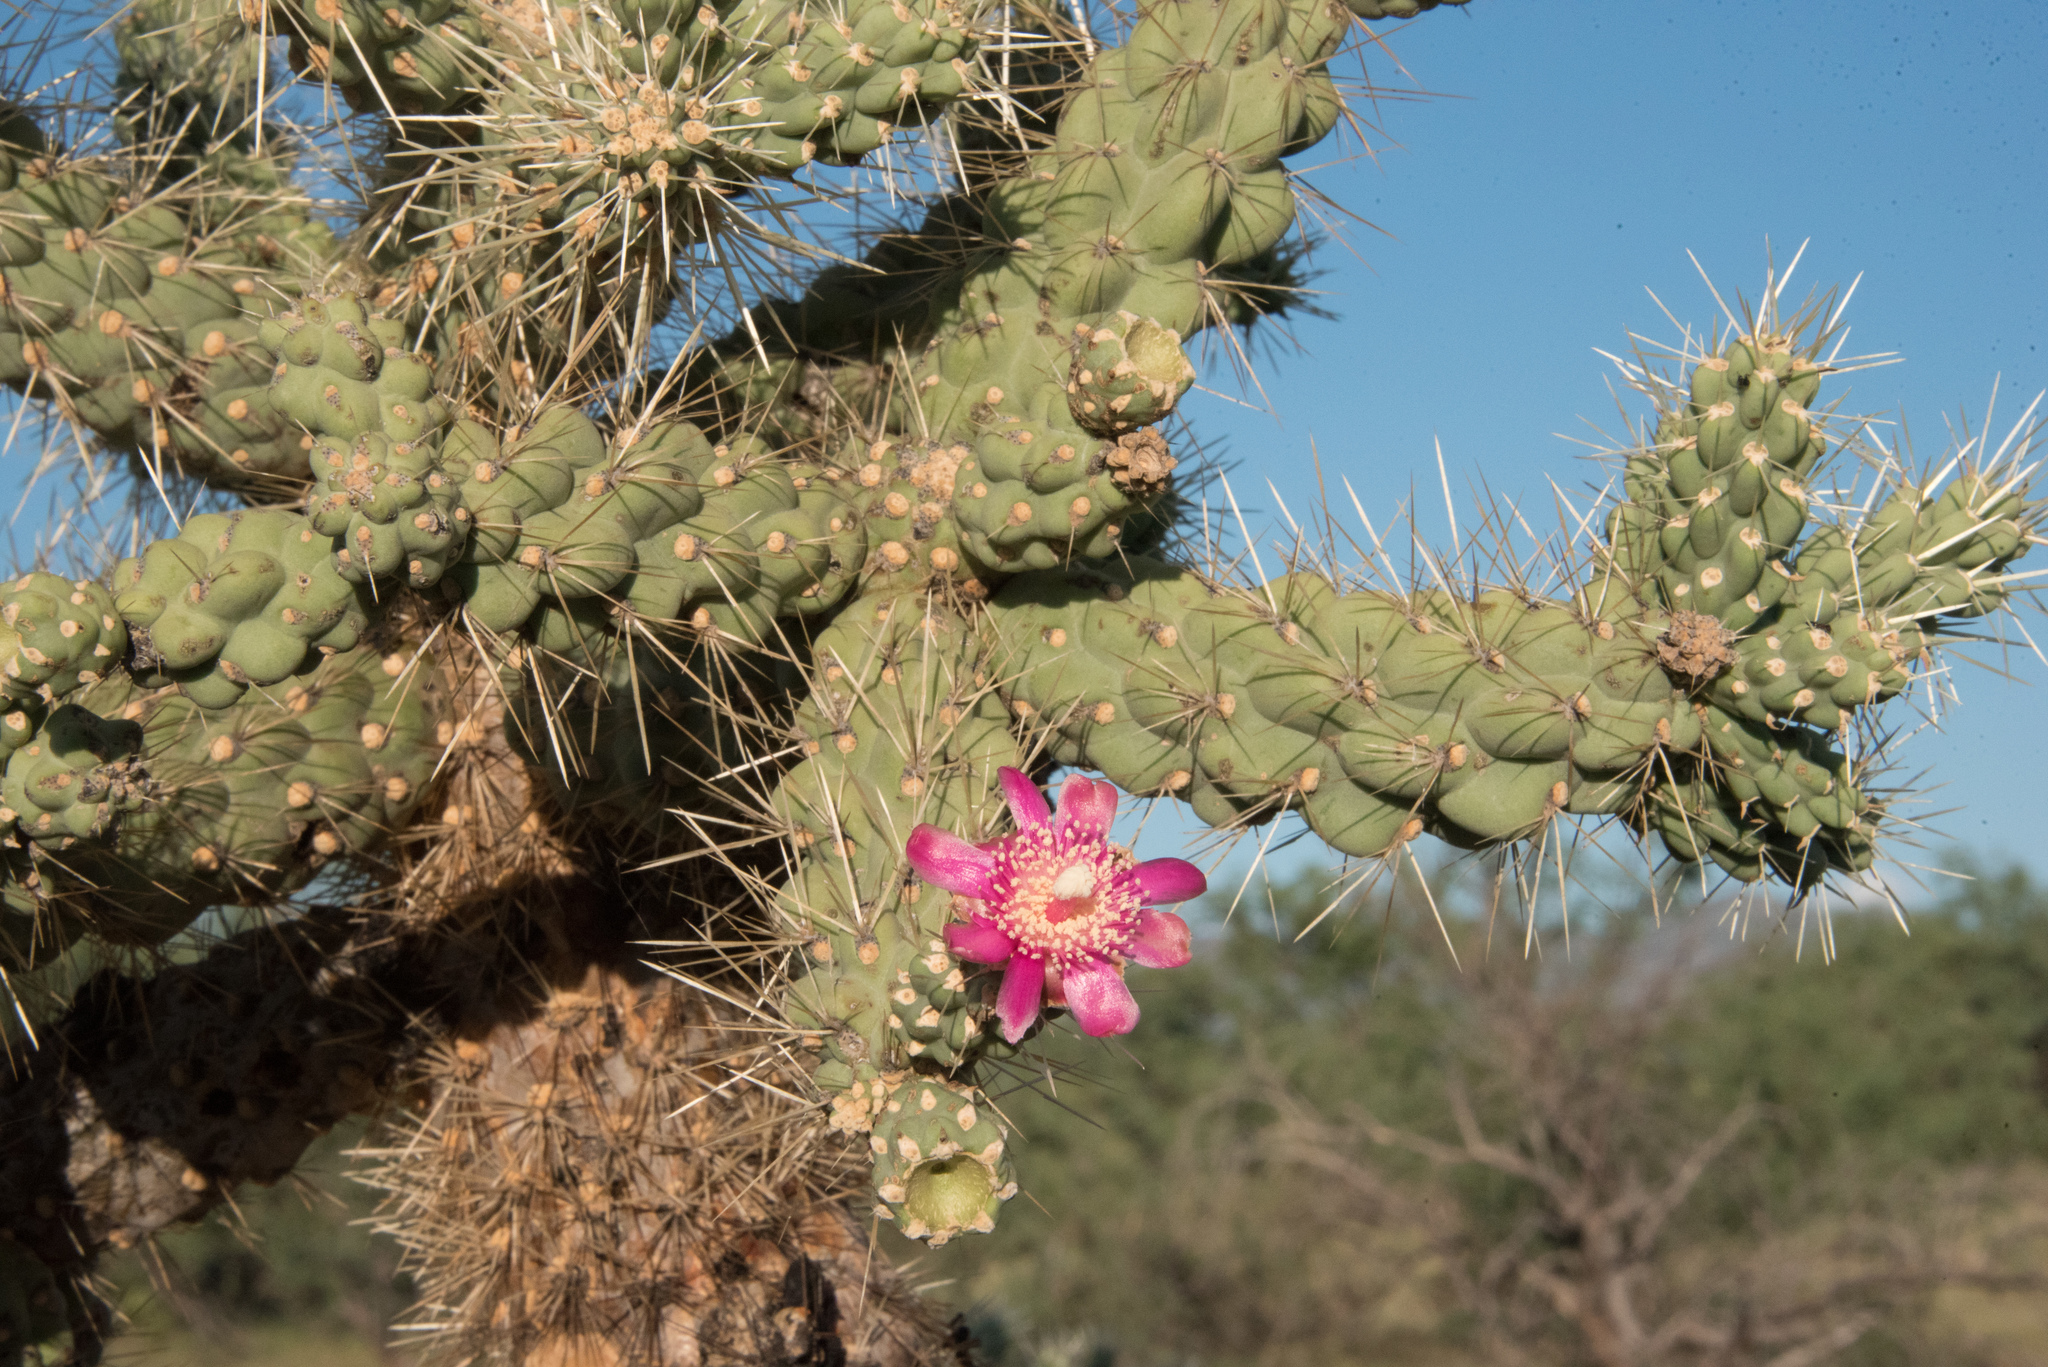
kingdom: Plantae
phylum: Tracheophyta
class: Magnoliopsida
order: Caryophyllales
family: Cactaceae
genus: Cylindropuntia
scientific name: Cylindropuntia fulgida
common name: Jumping cholla
